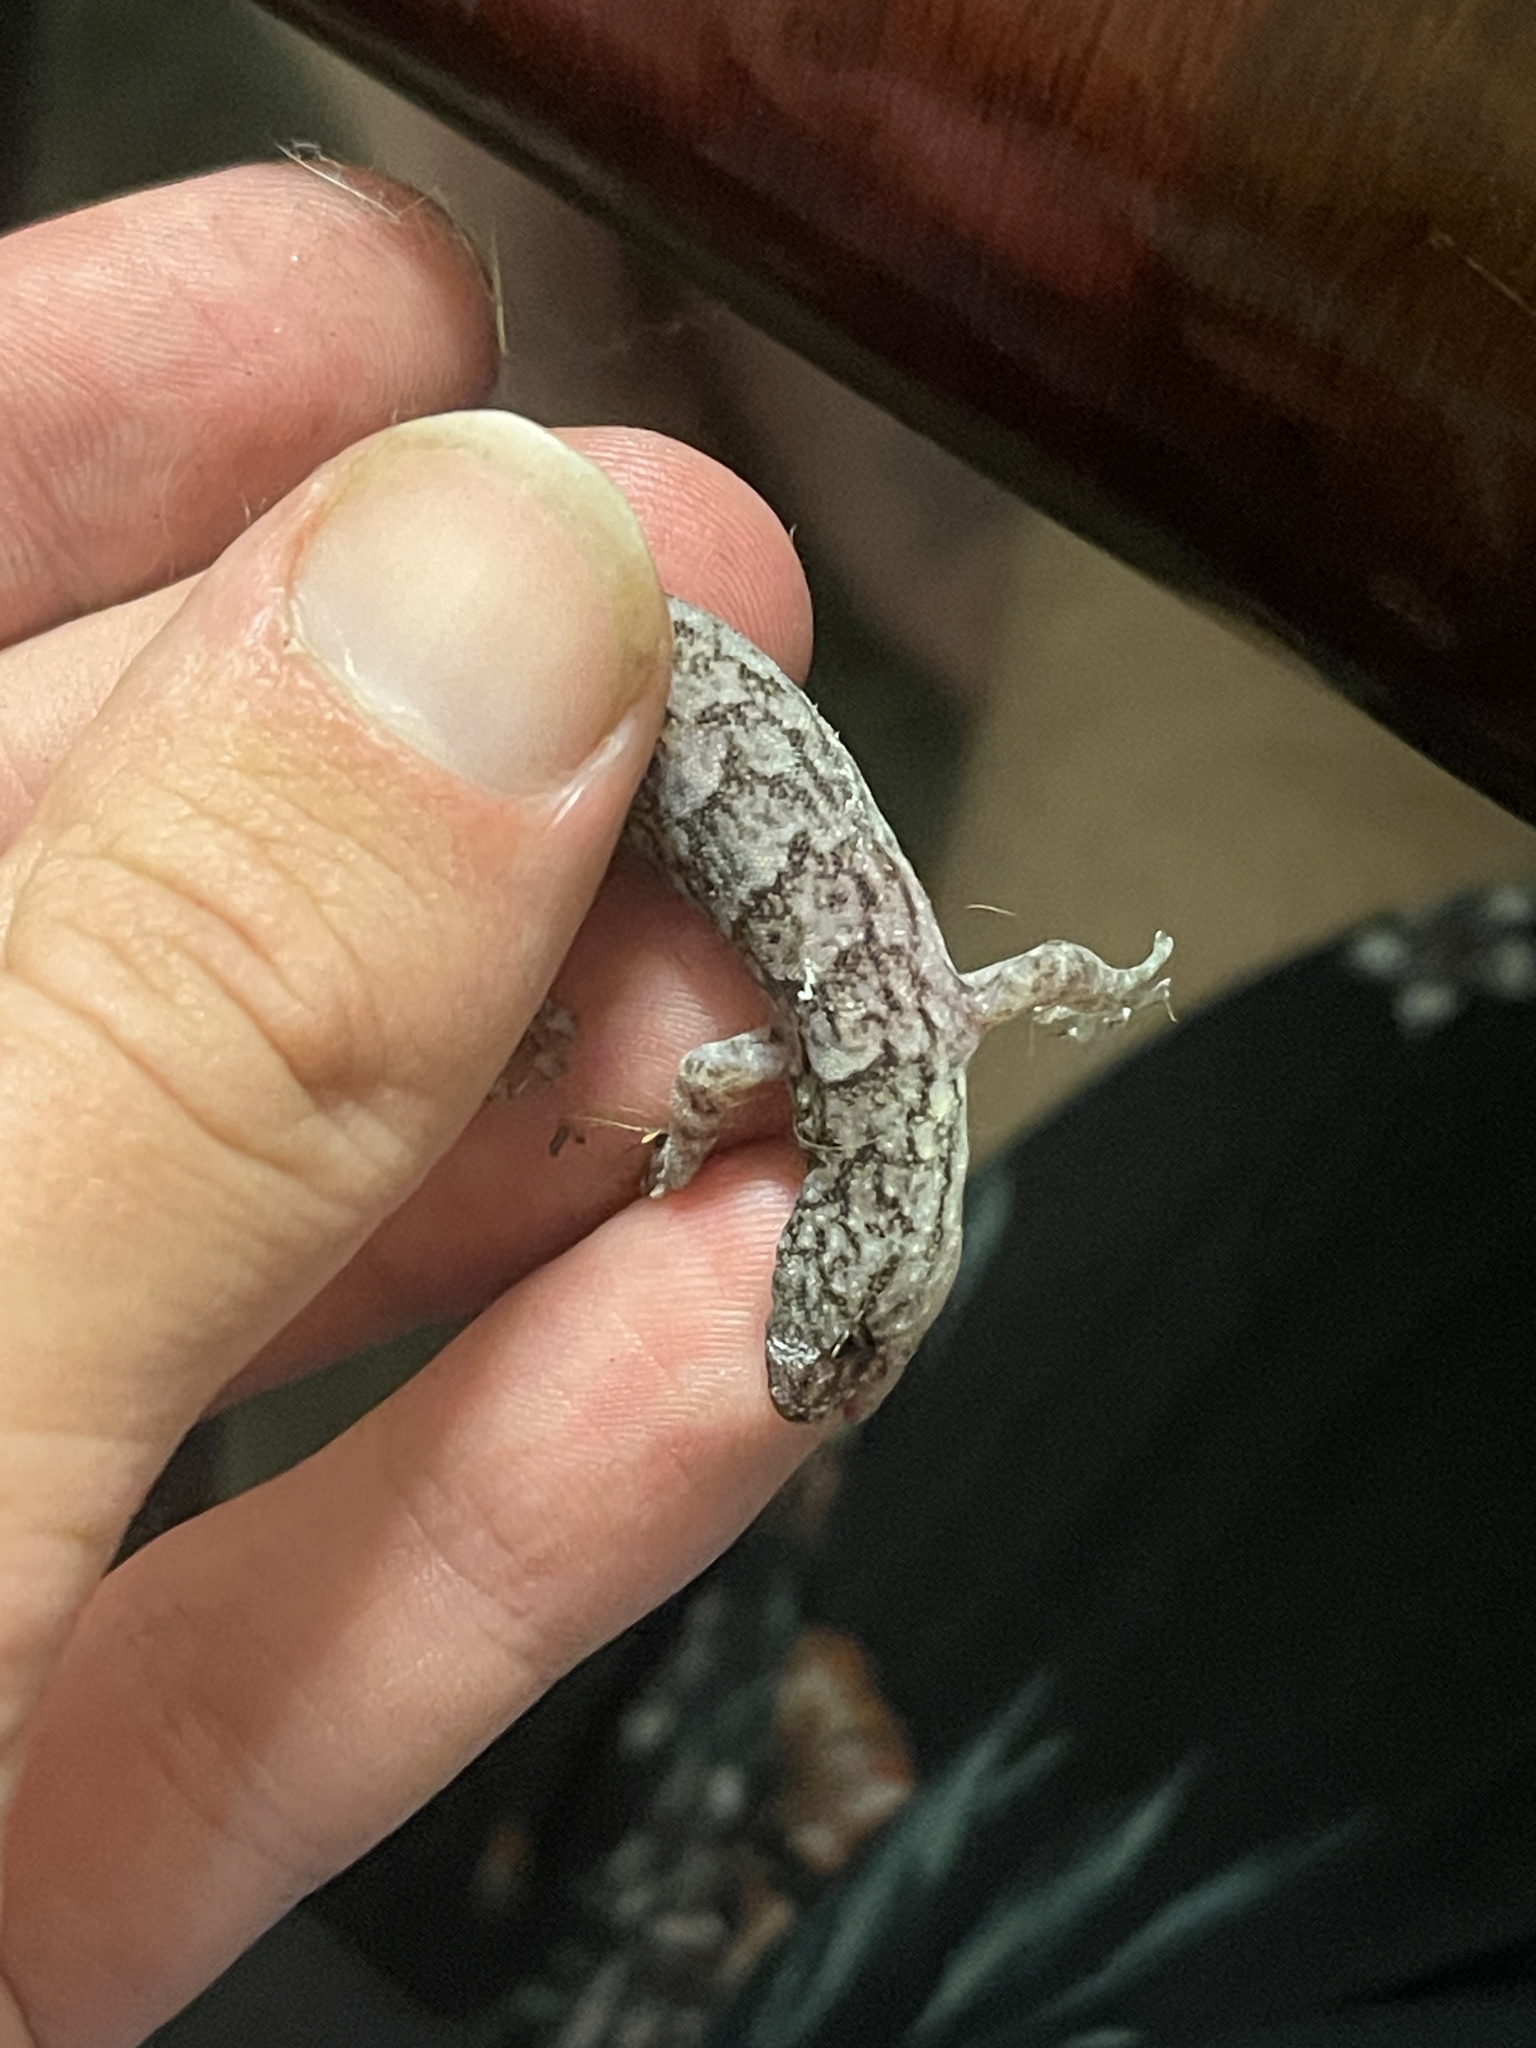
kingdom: Animalia
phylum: Chordata
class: Squamata
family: Gekkonidae
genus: Christinus
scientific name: Christinus marmoratus
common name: Marbled gecko
